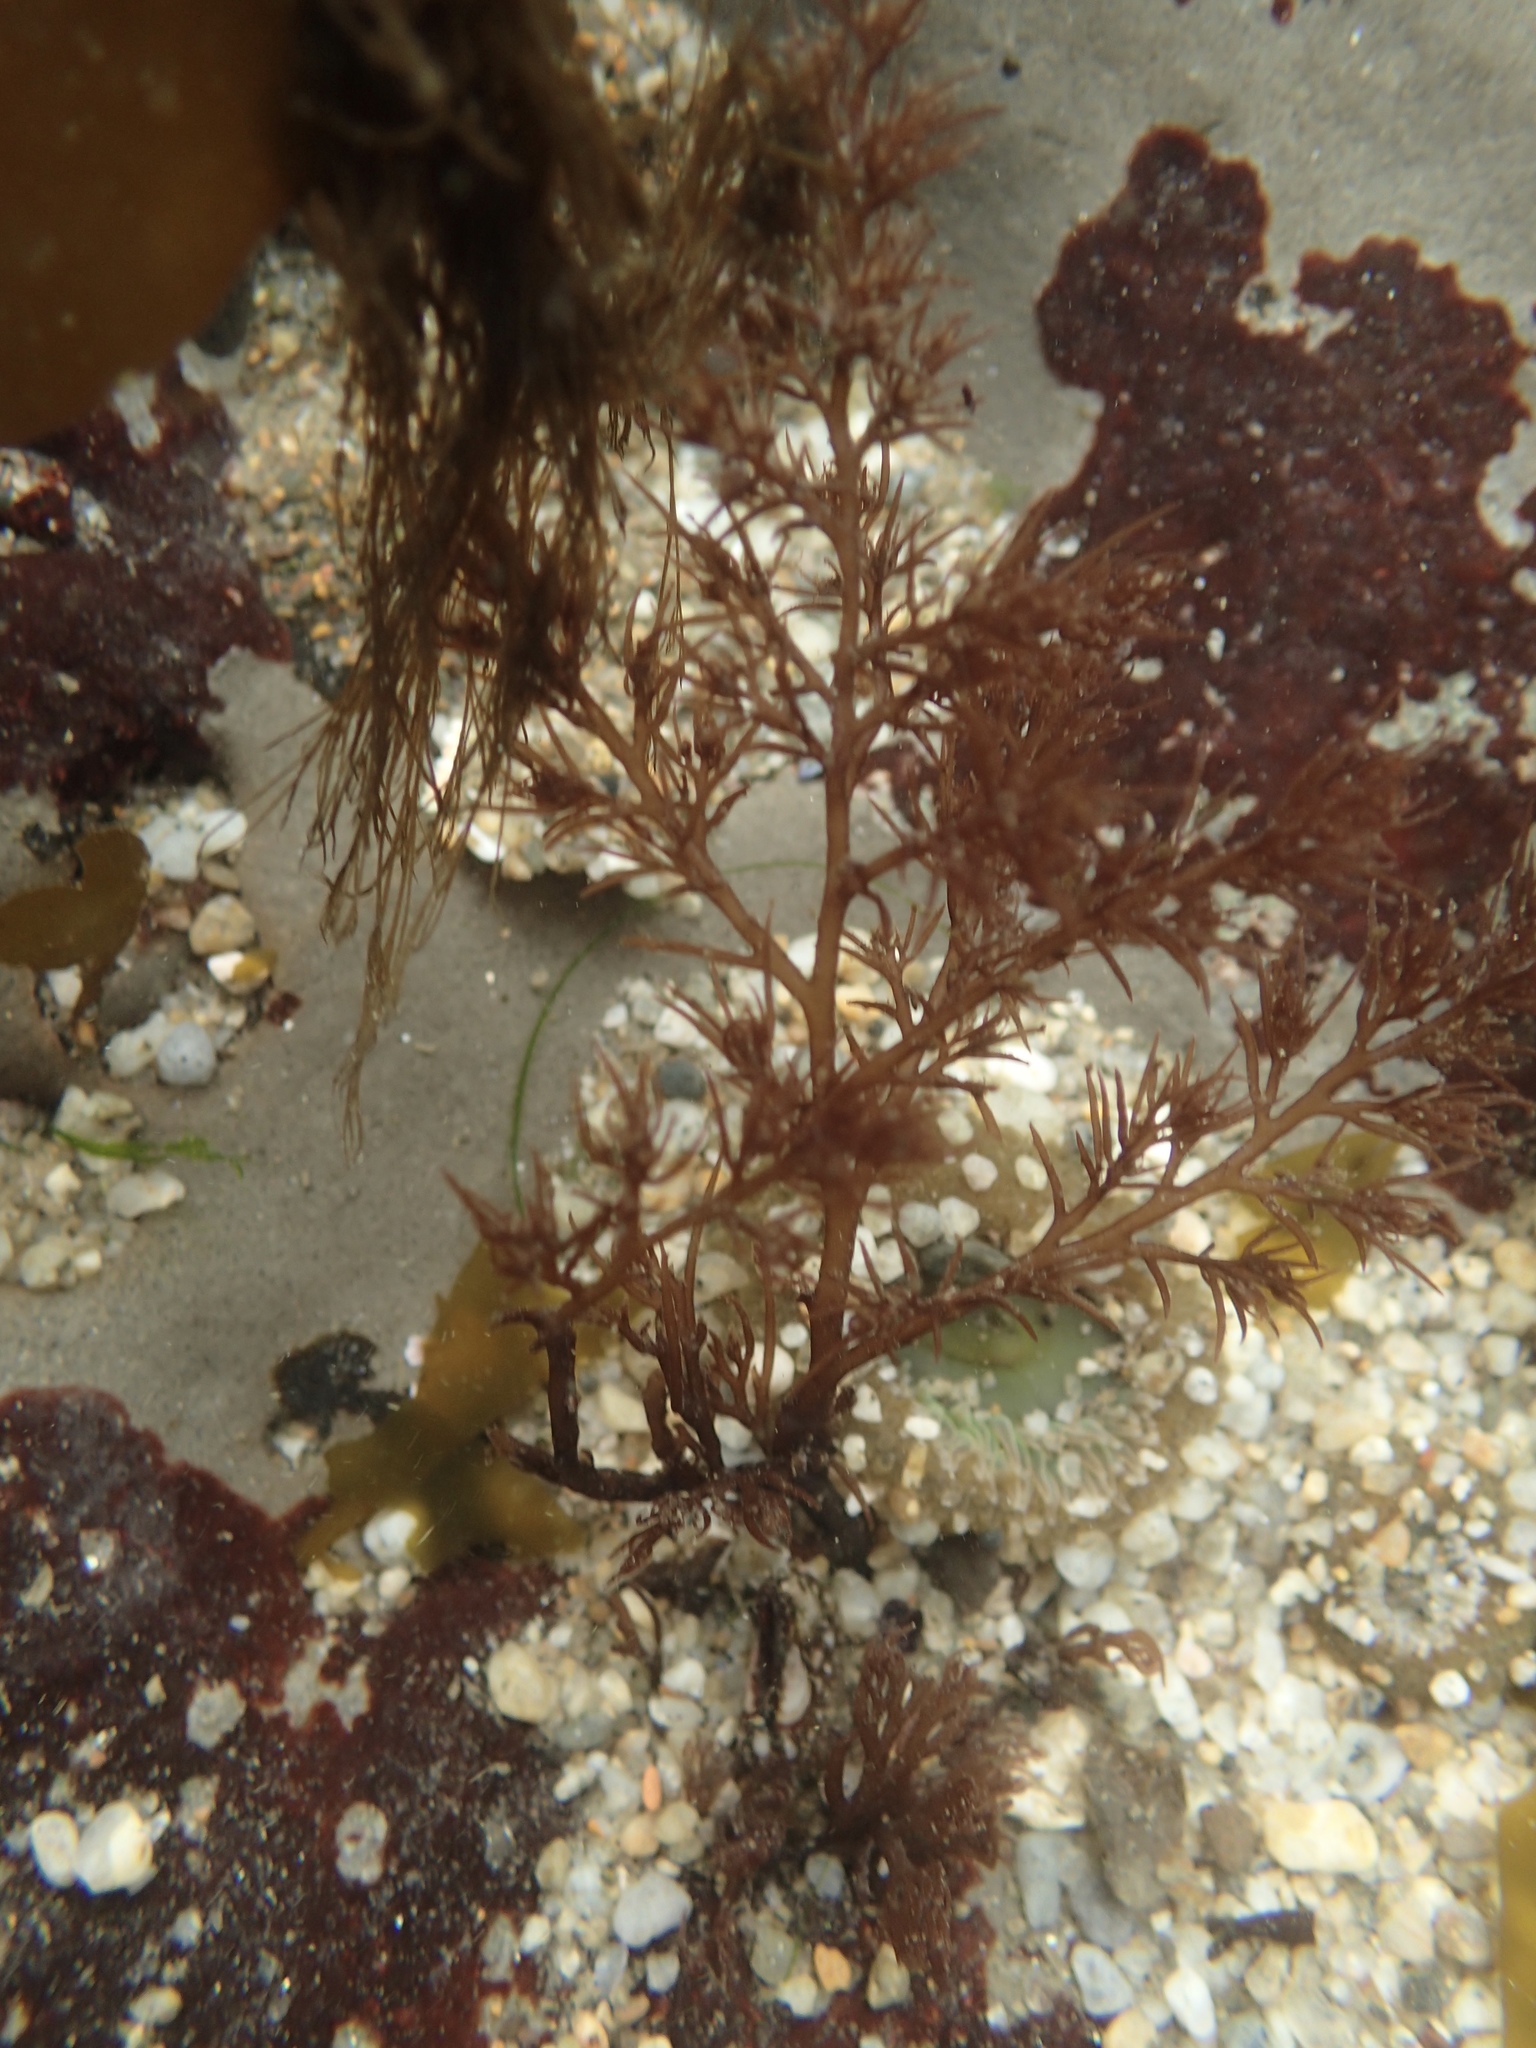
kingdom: Plantae
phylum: Rhodophyta
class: Florideophyceae
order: Ceramiales
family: Rhodomelaceae
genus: Odonthalia
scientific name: Odonthalia floccosa
